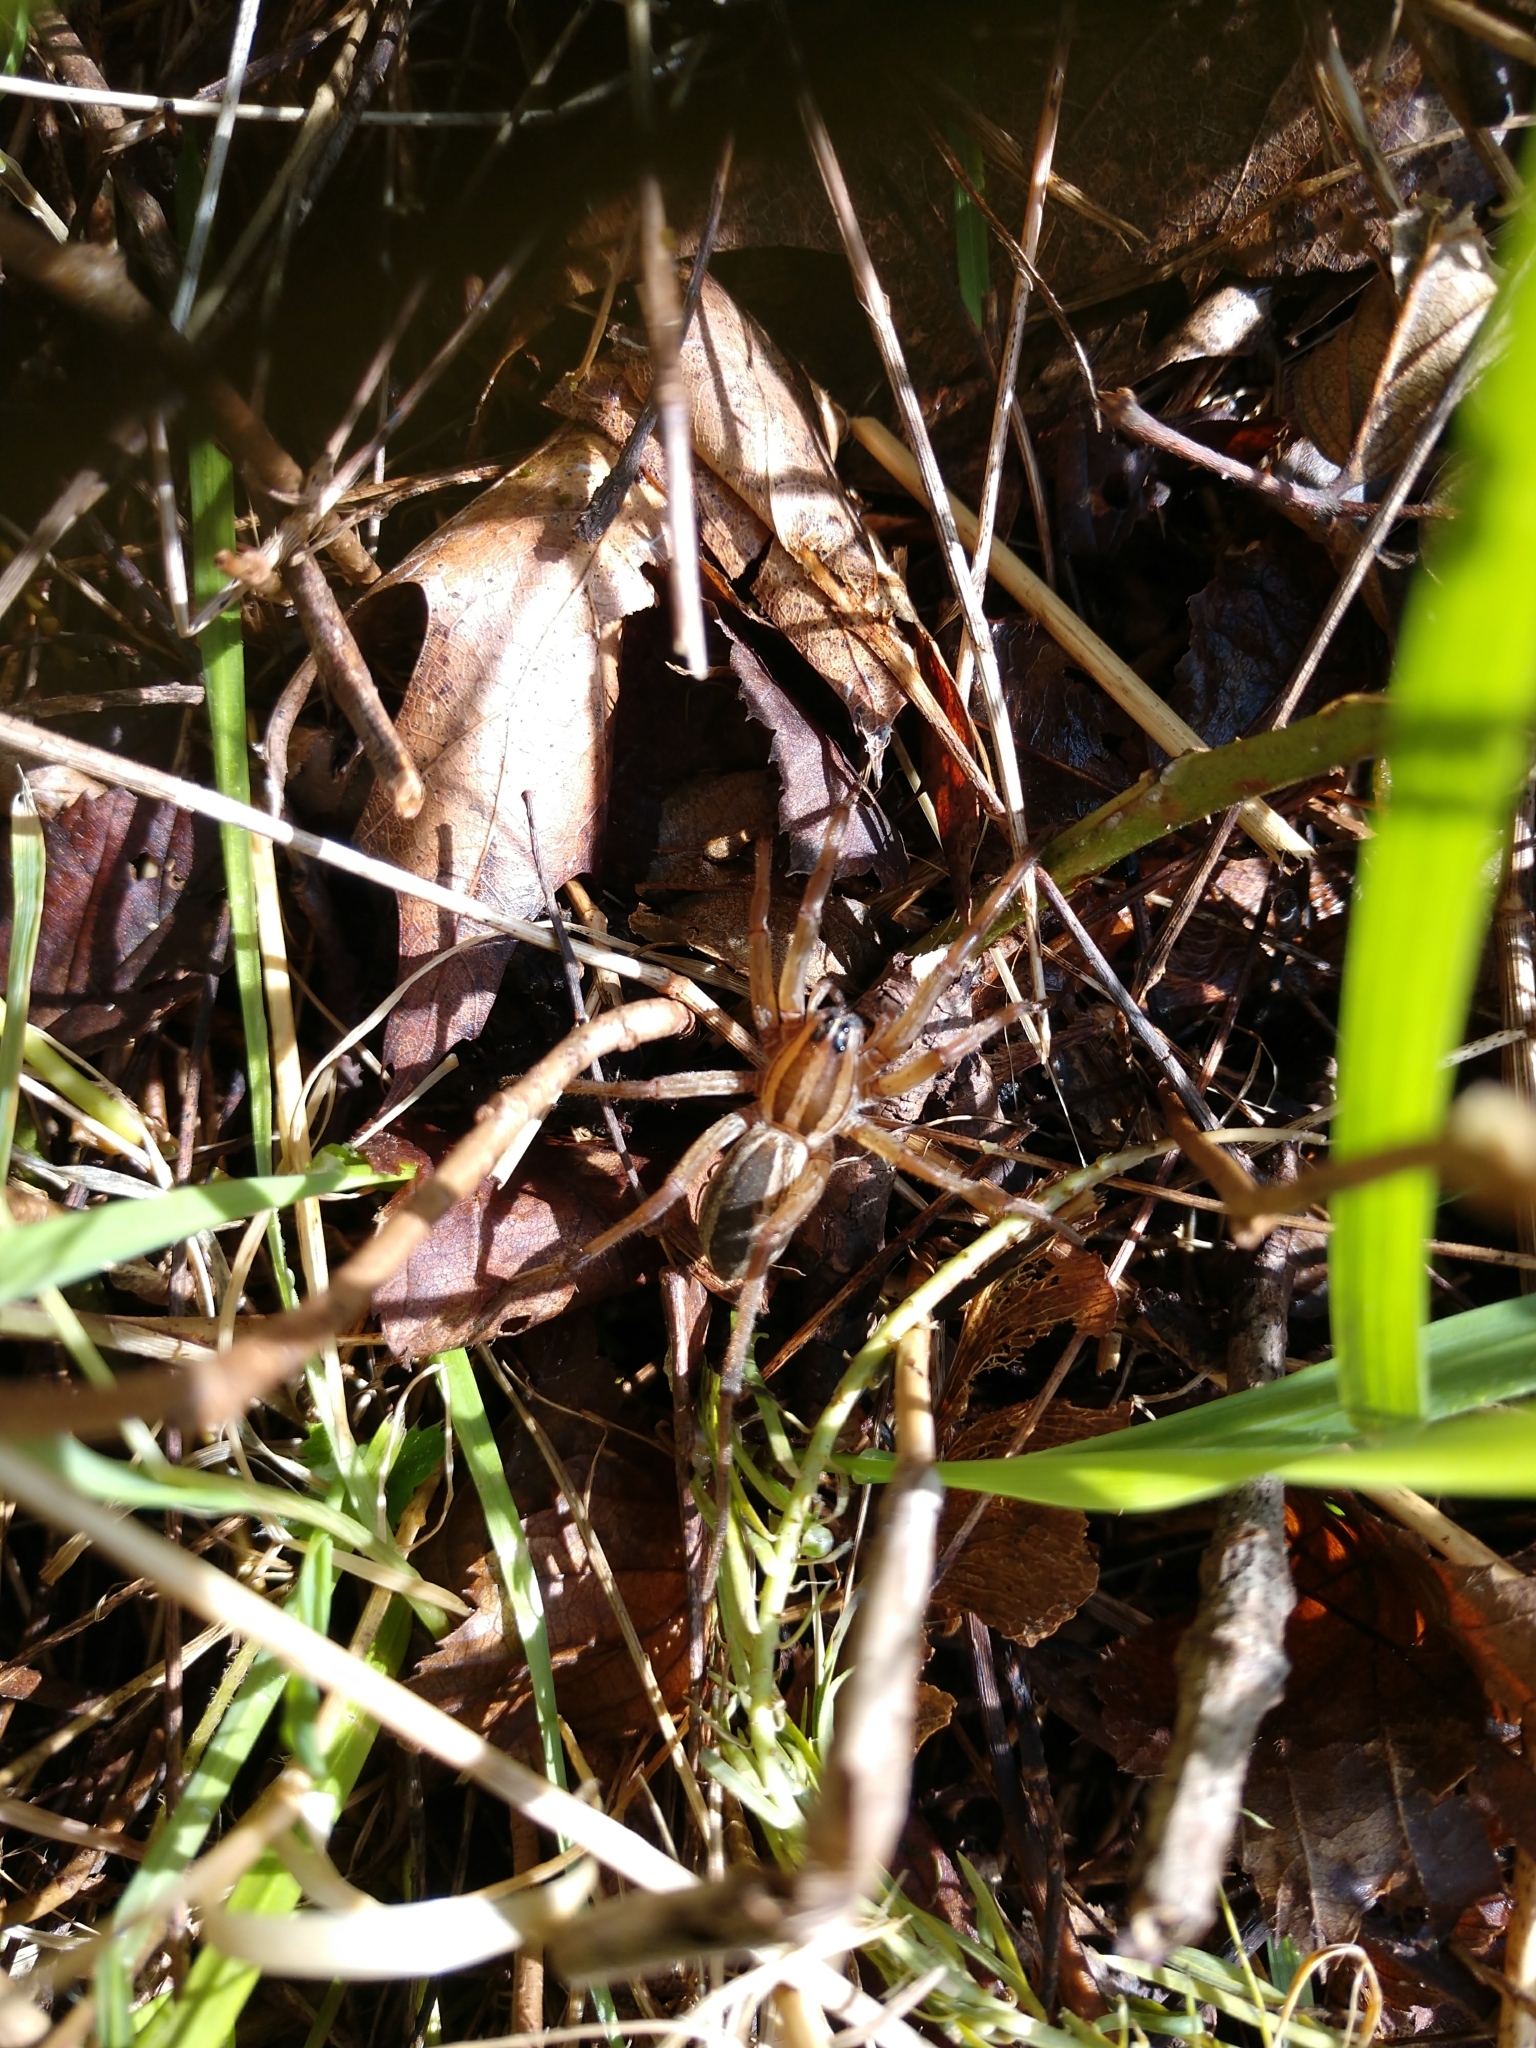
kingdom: Animalia
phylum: Arthropoda
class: Arachnida
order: Araneae
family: Lycosidae
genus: Rabidosa
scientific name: Rabidosa rabida
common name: Rabid wolf spider
